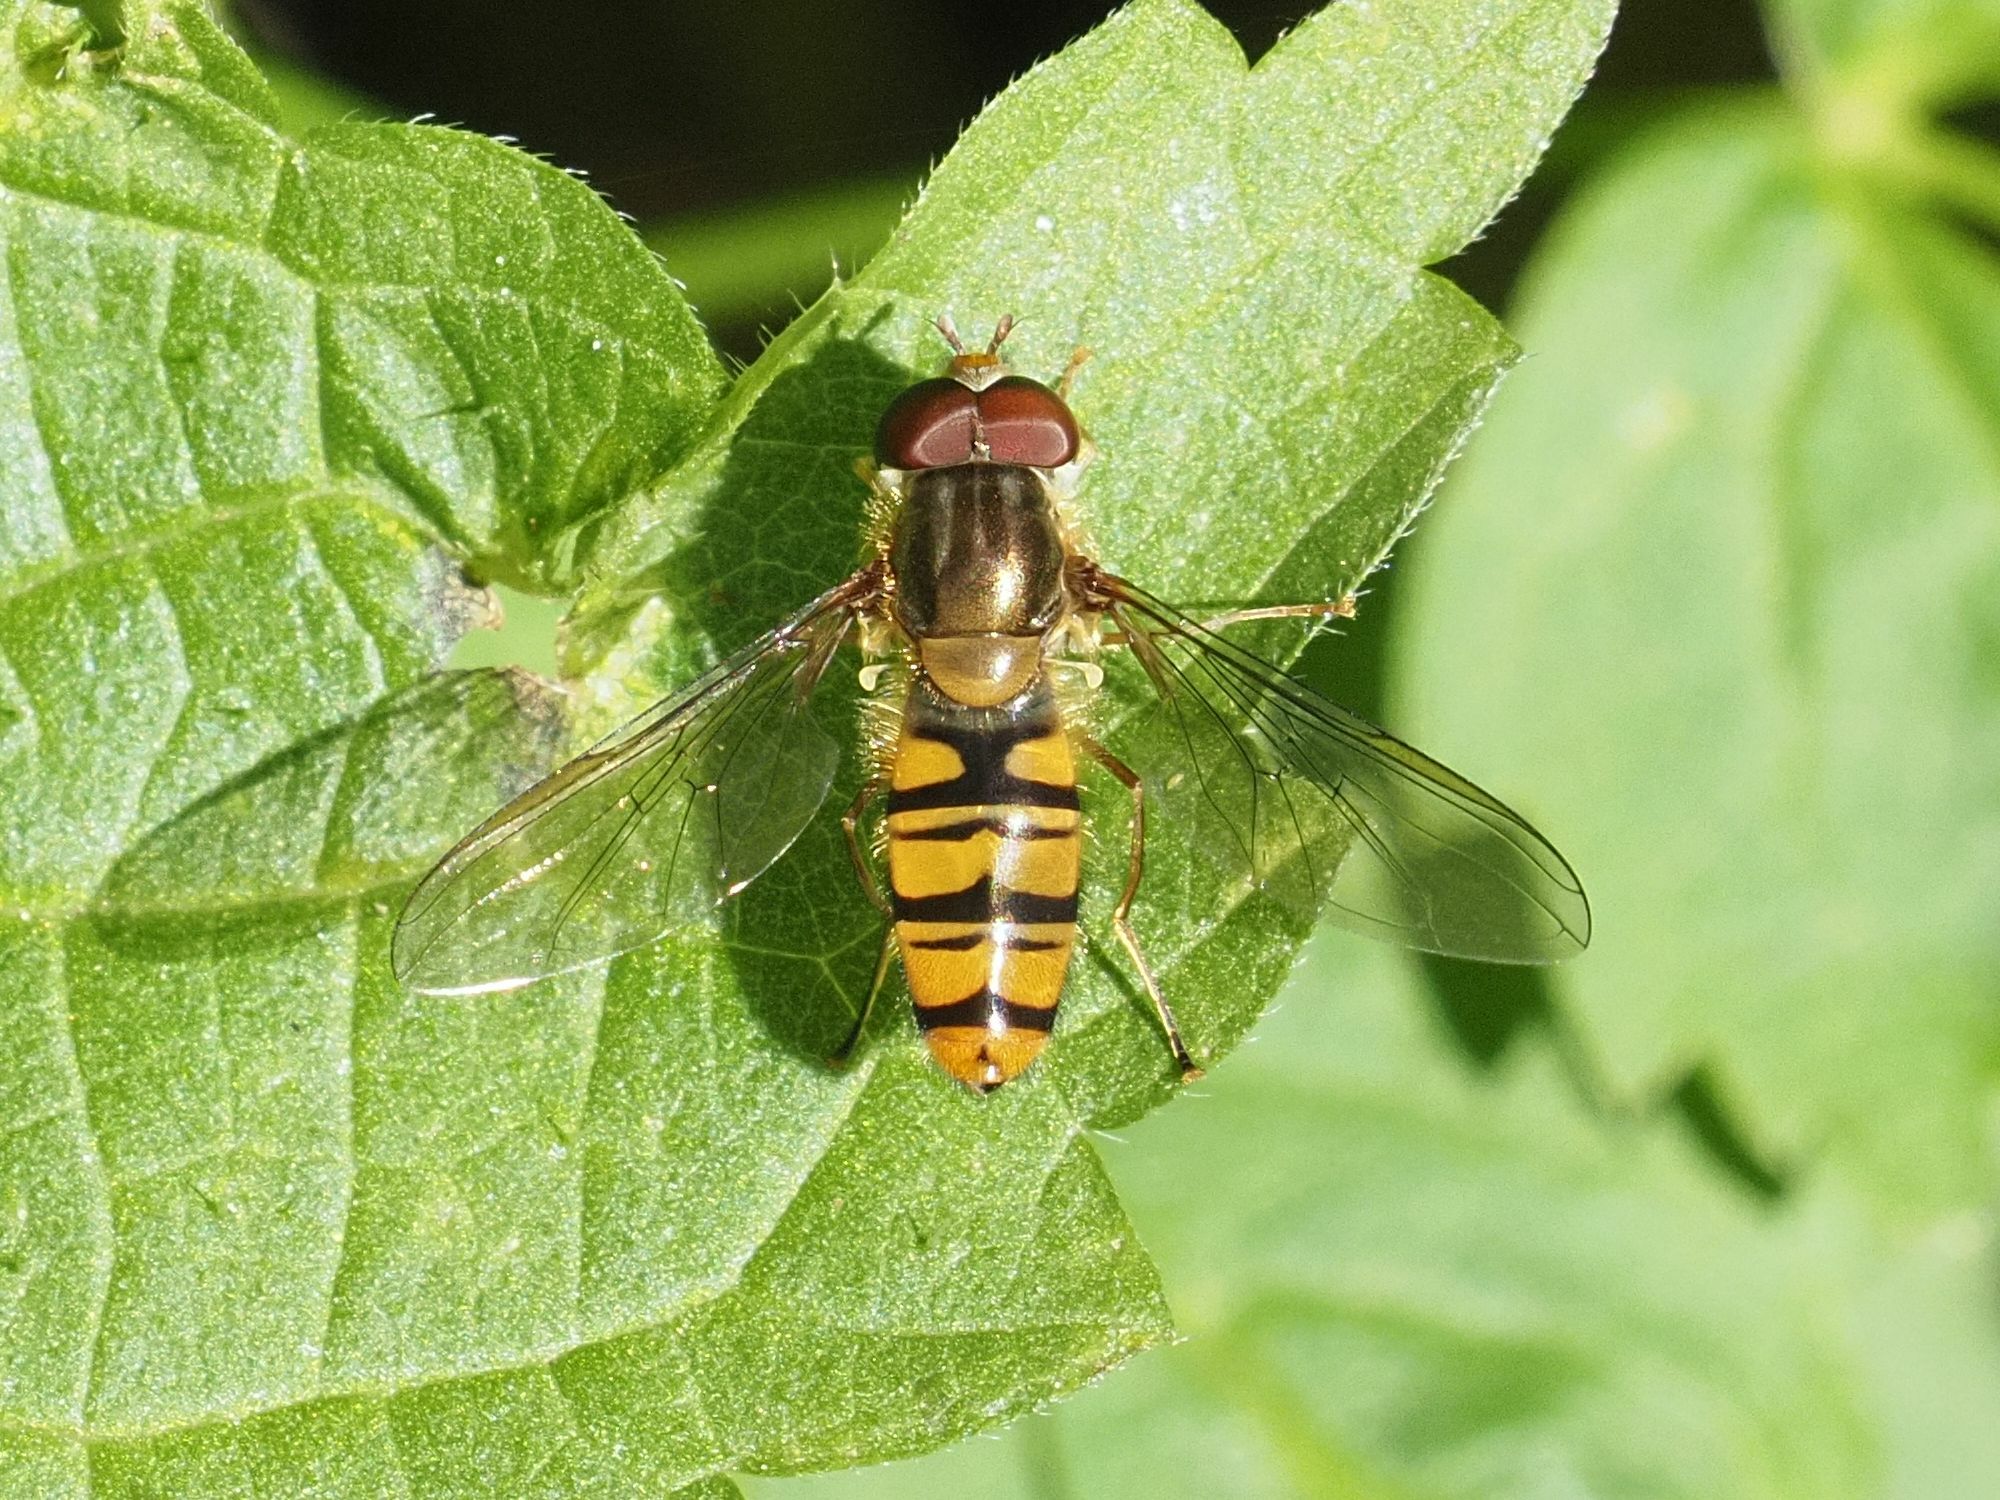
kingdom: Animalia
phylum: Arthropoda
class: Insecta
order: Diptera
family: Syrphidae
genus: Episyrphus
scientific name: Episyrphus balteatus
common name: Marmalade hoverfly
